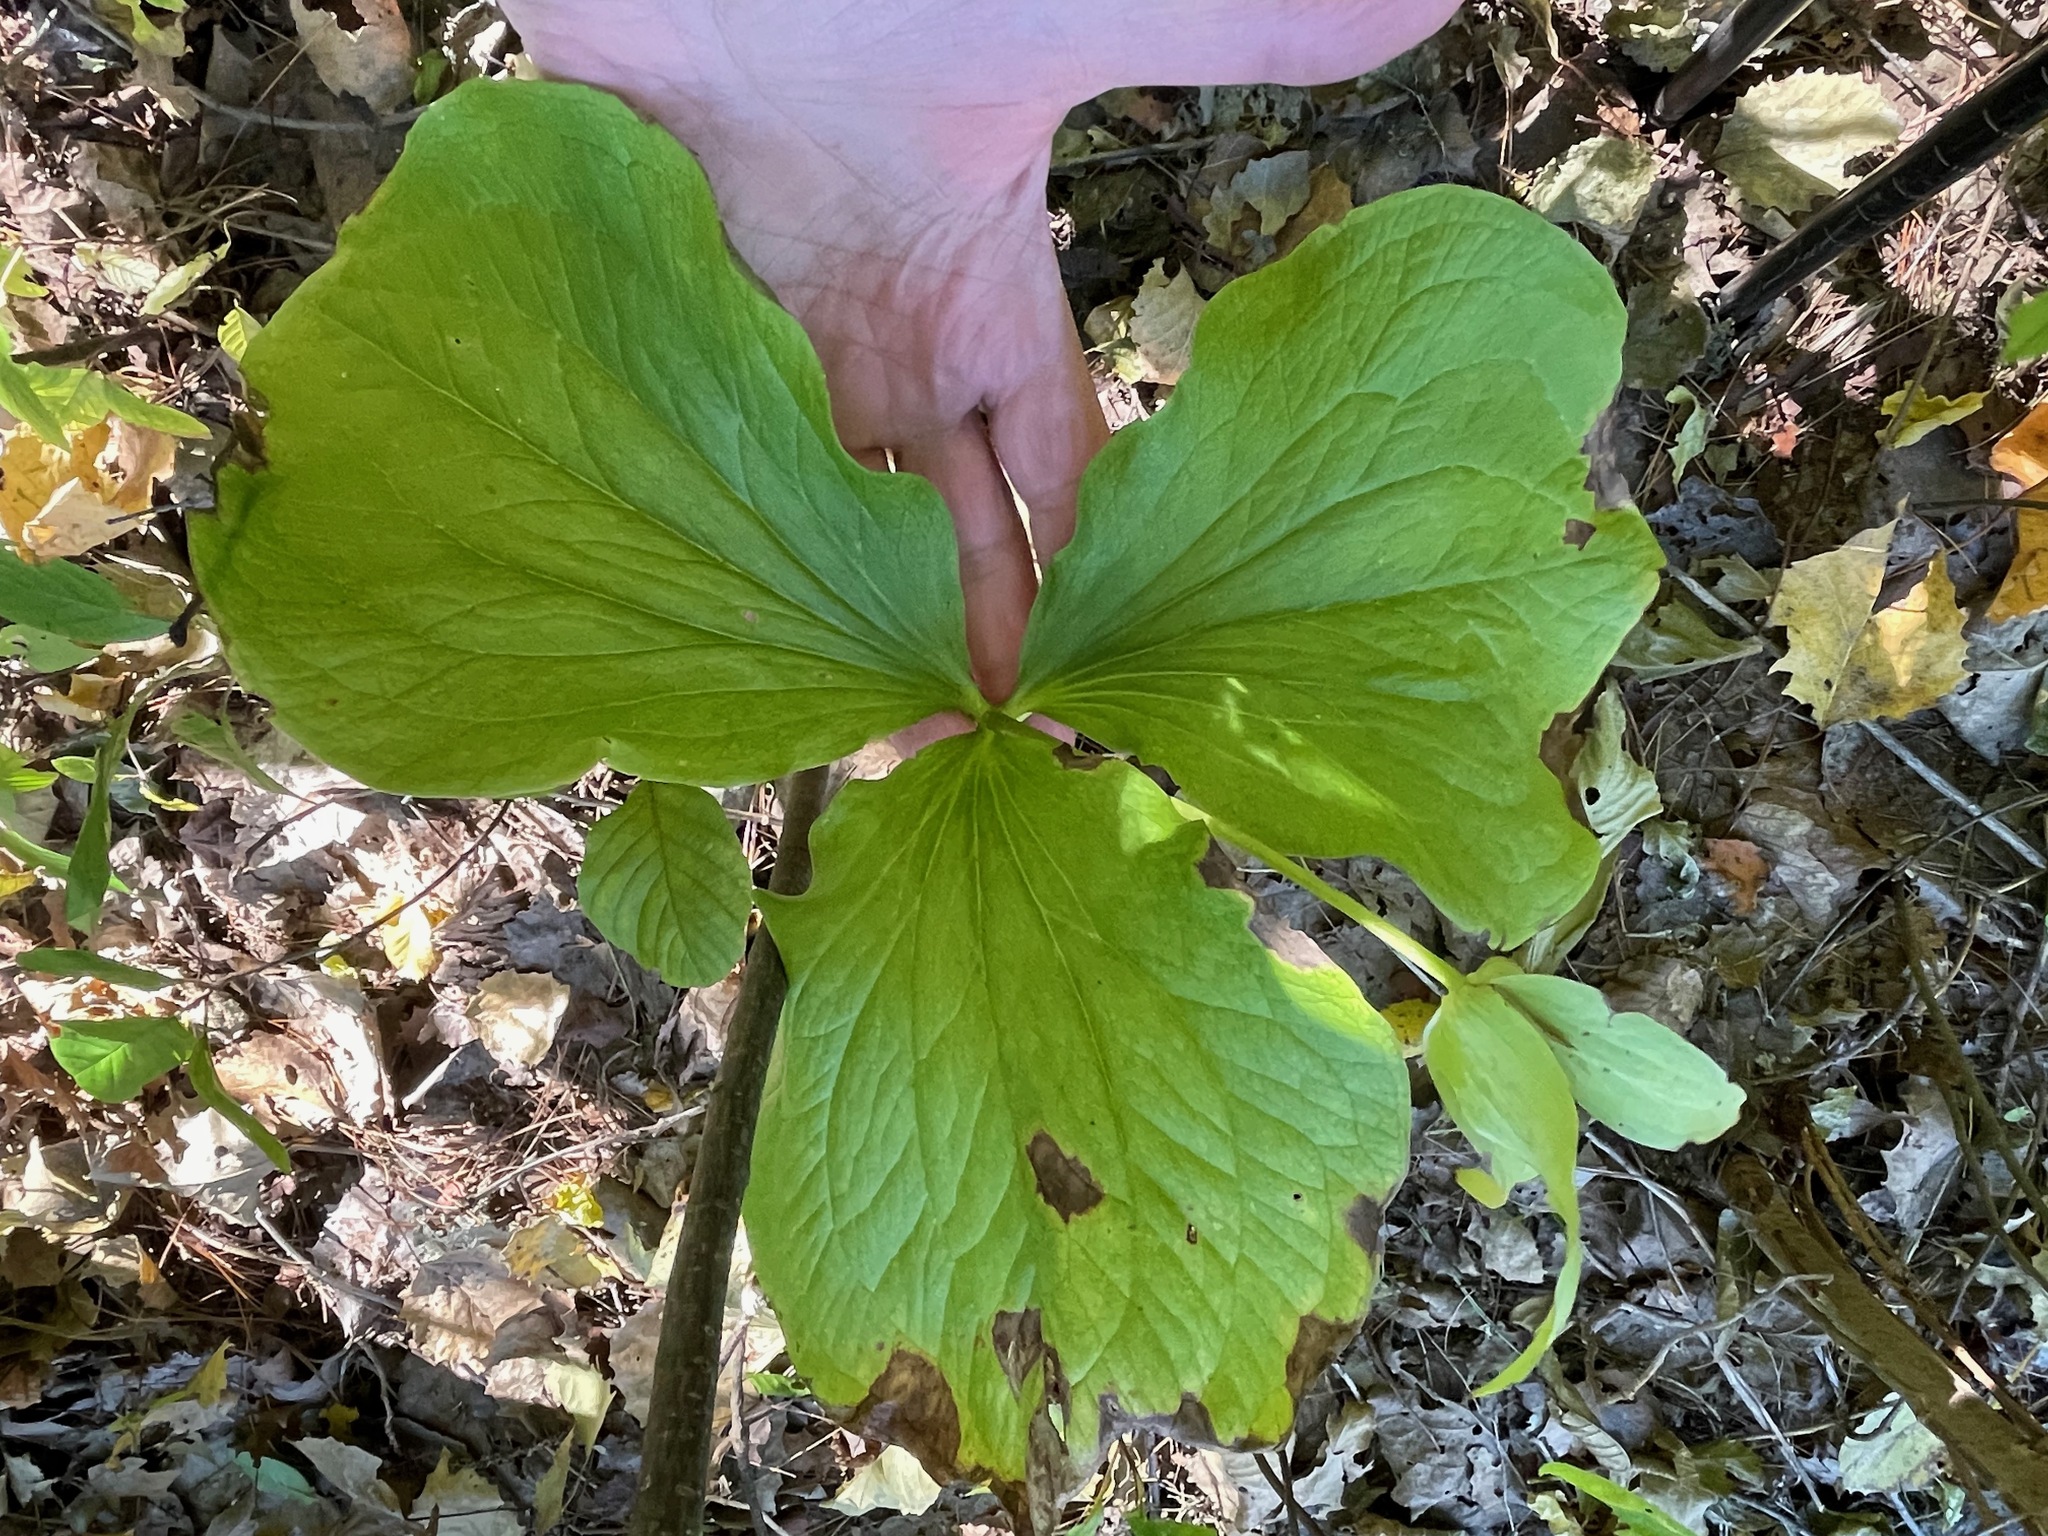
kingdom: Plantae
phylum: Tracheophyta
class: Liliopsida
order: Liliales
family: Melanthiaceae
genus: Trillium
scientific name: Trillium grandiflorum
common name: Great white trillium
